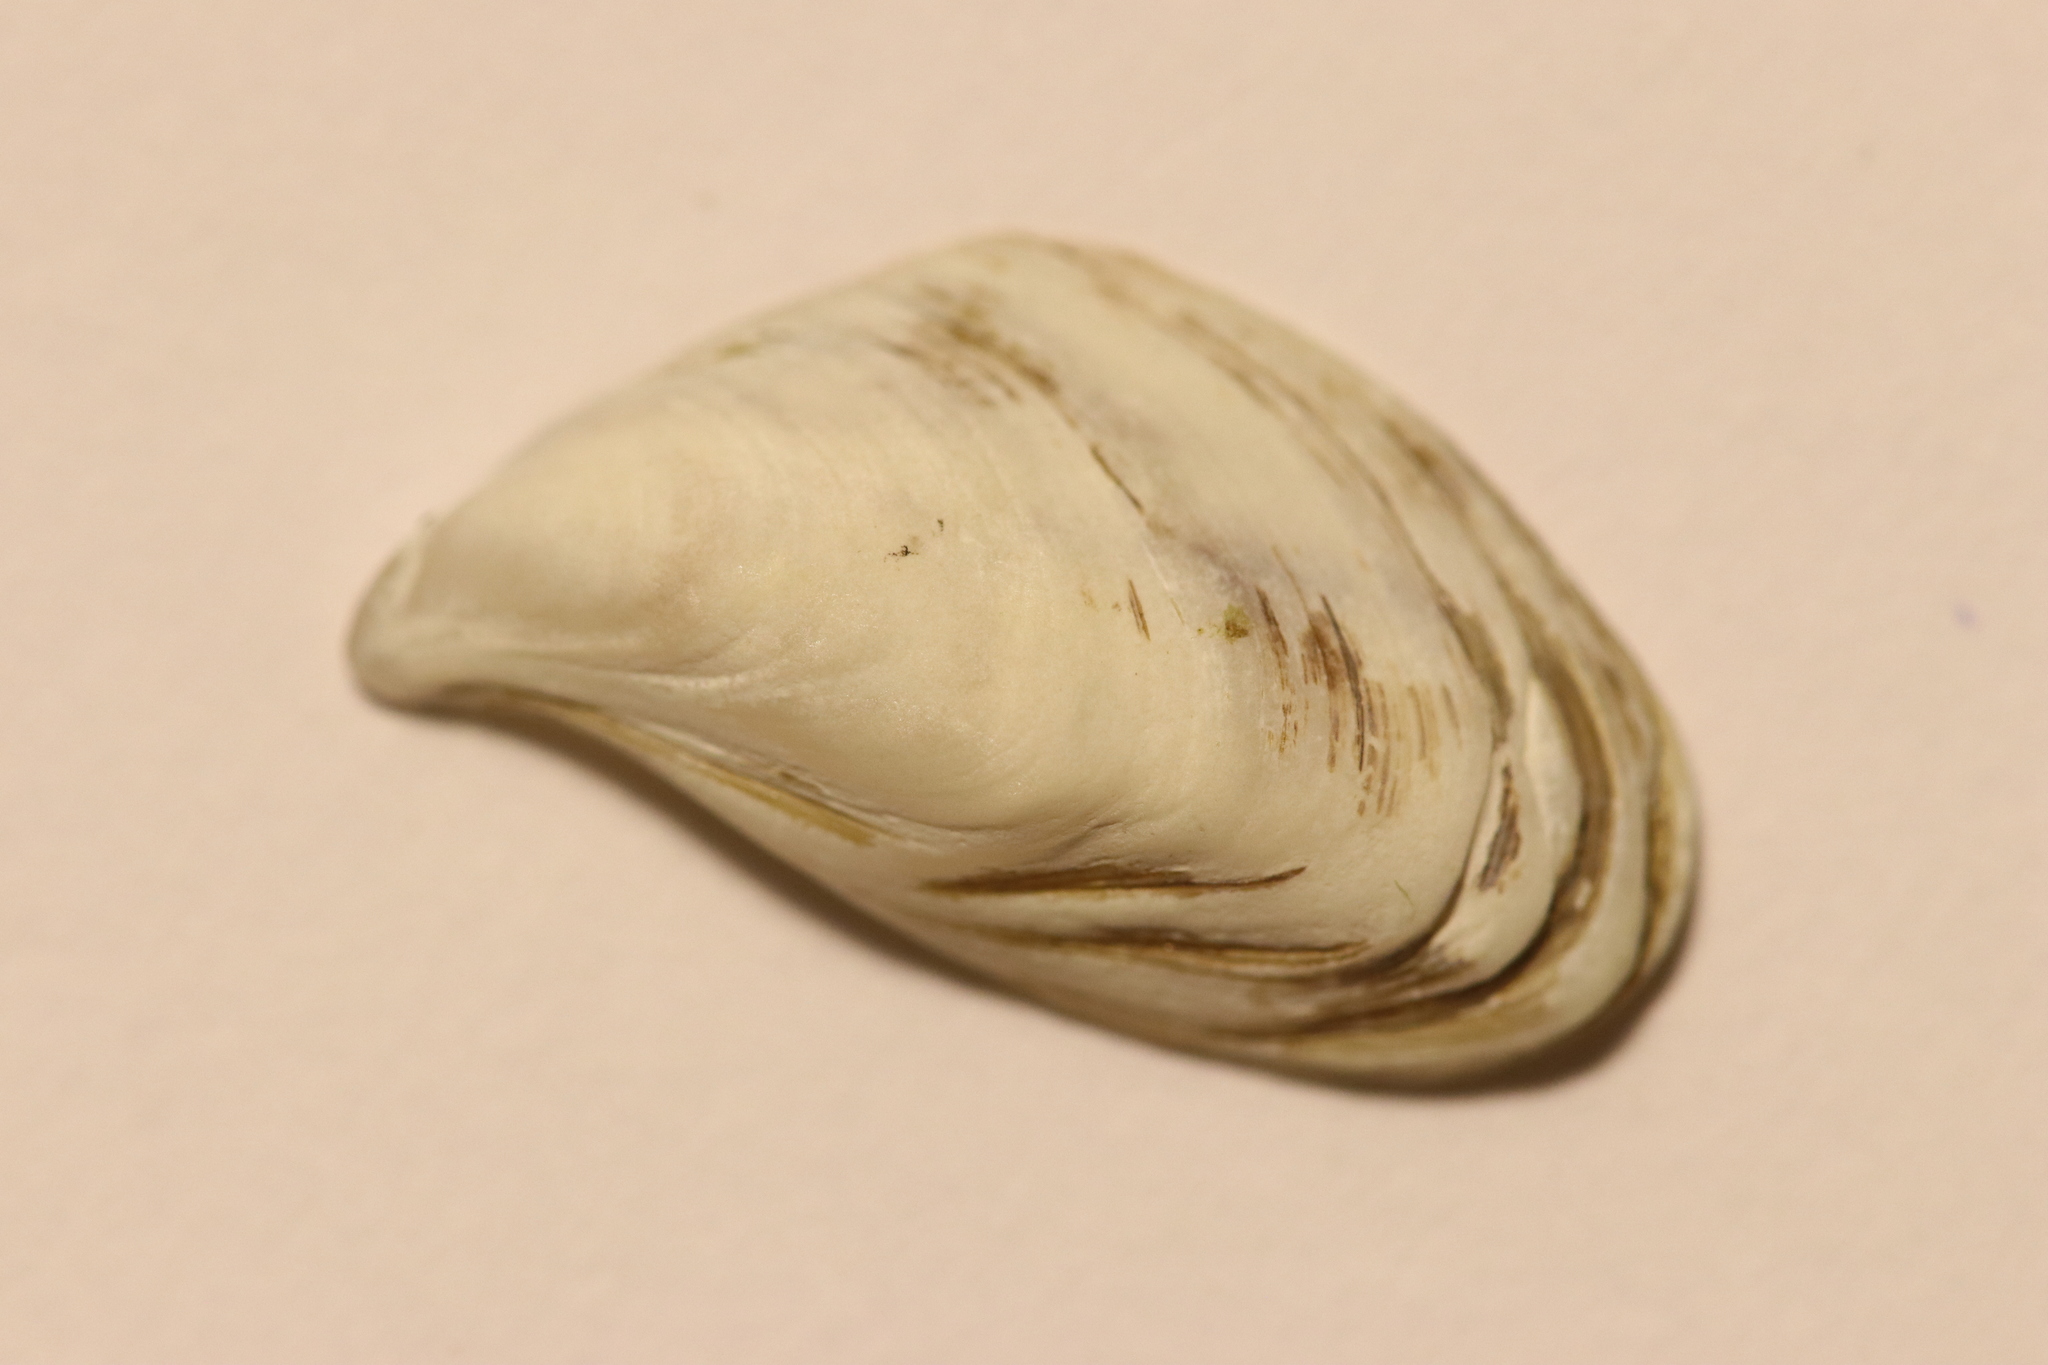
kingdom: Animalia
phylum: Mollusca
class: Bivalvia
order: Myida
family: Dreissenidae
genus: Dreissena
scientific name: Dreissena bugensis
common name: Quagga mussel
